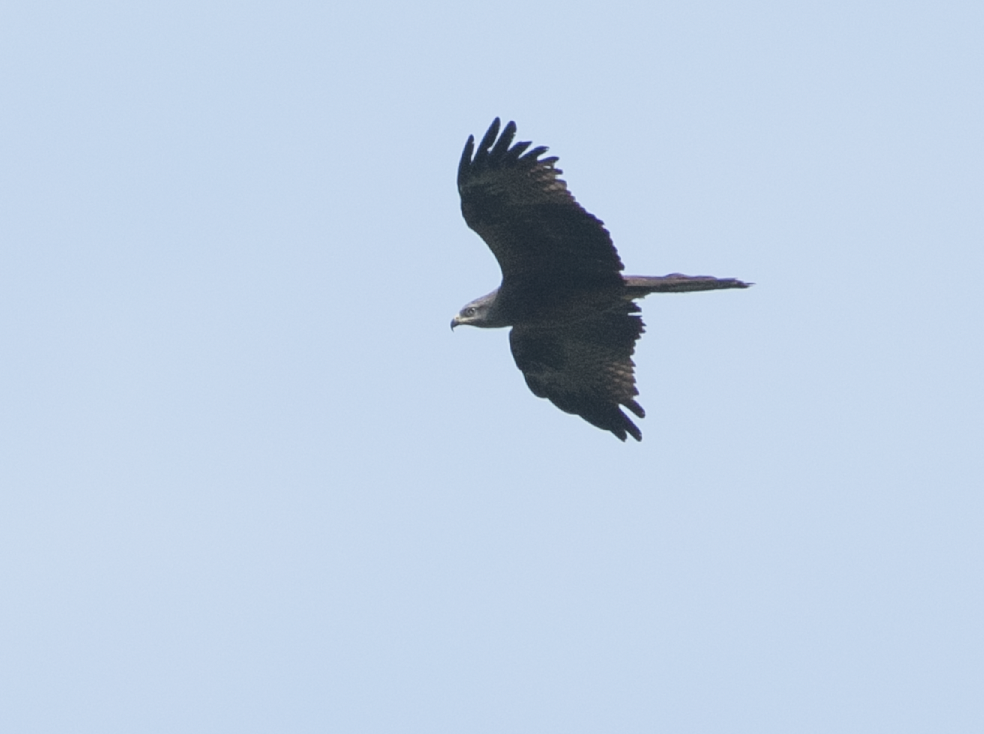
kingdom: Animalia
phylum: Chordata
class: Aves
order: Accipitriformes
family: Accipitridae
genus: Milvus
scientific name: Milvus migrans
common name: Black kite
